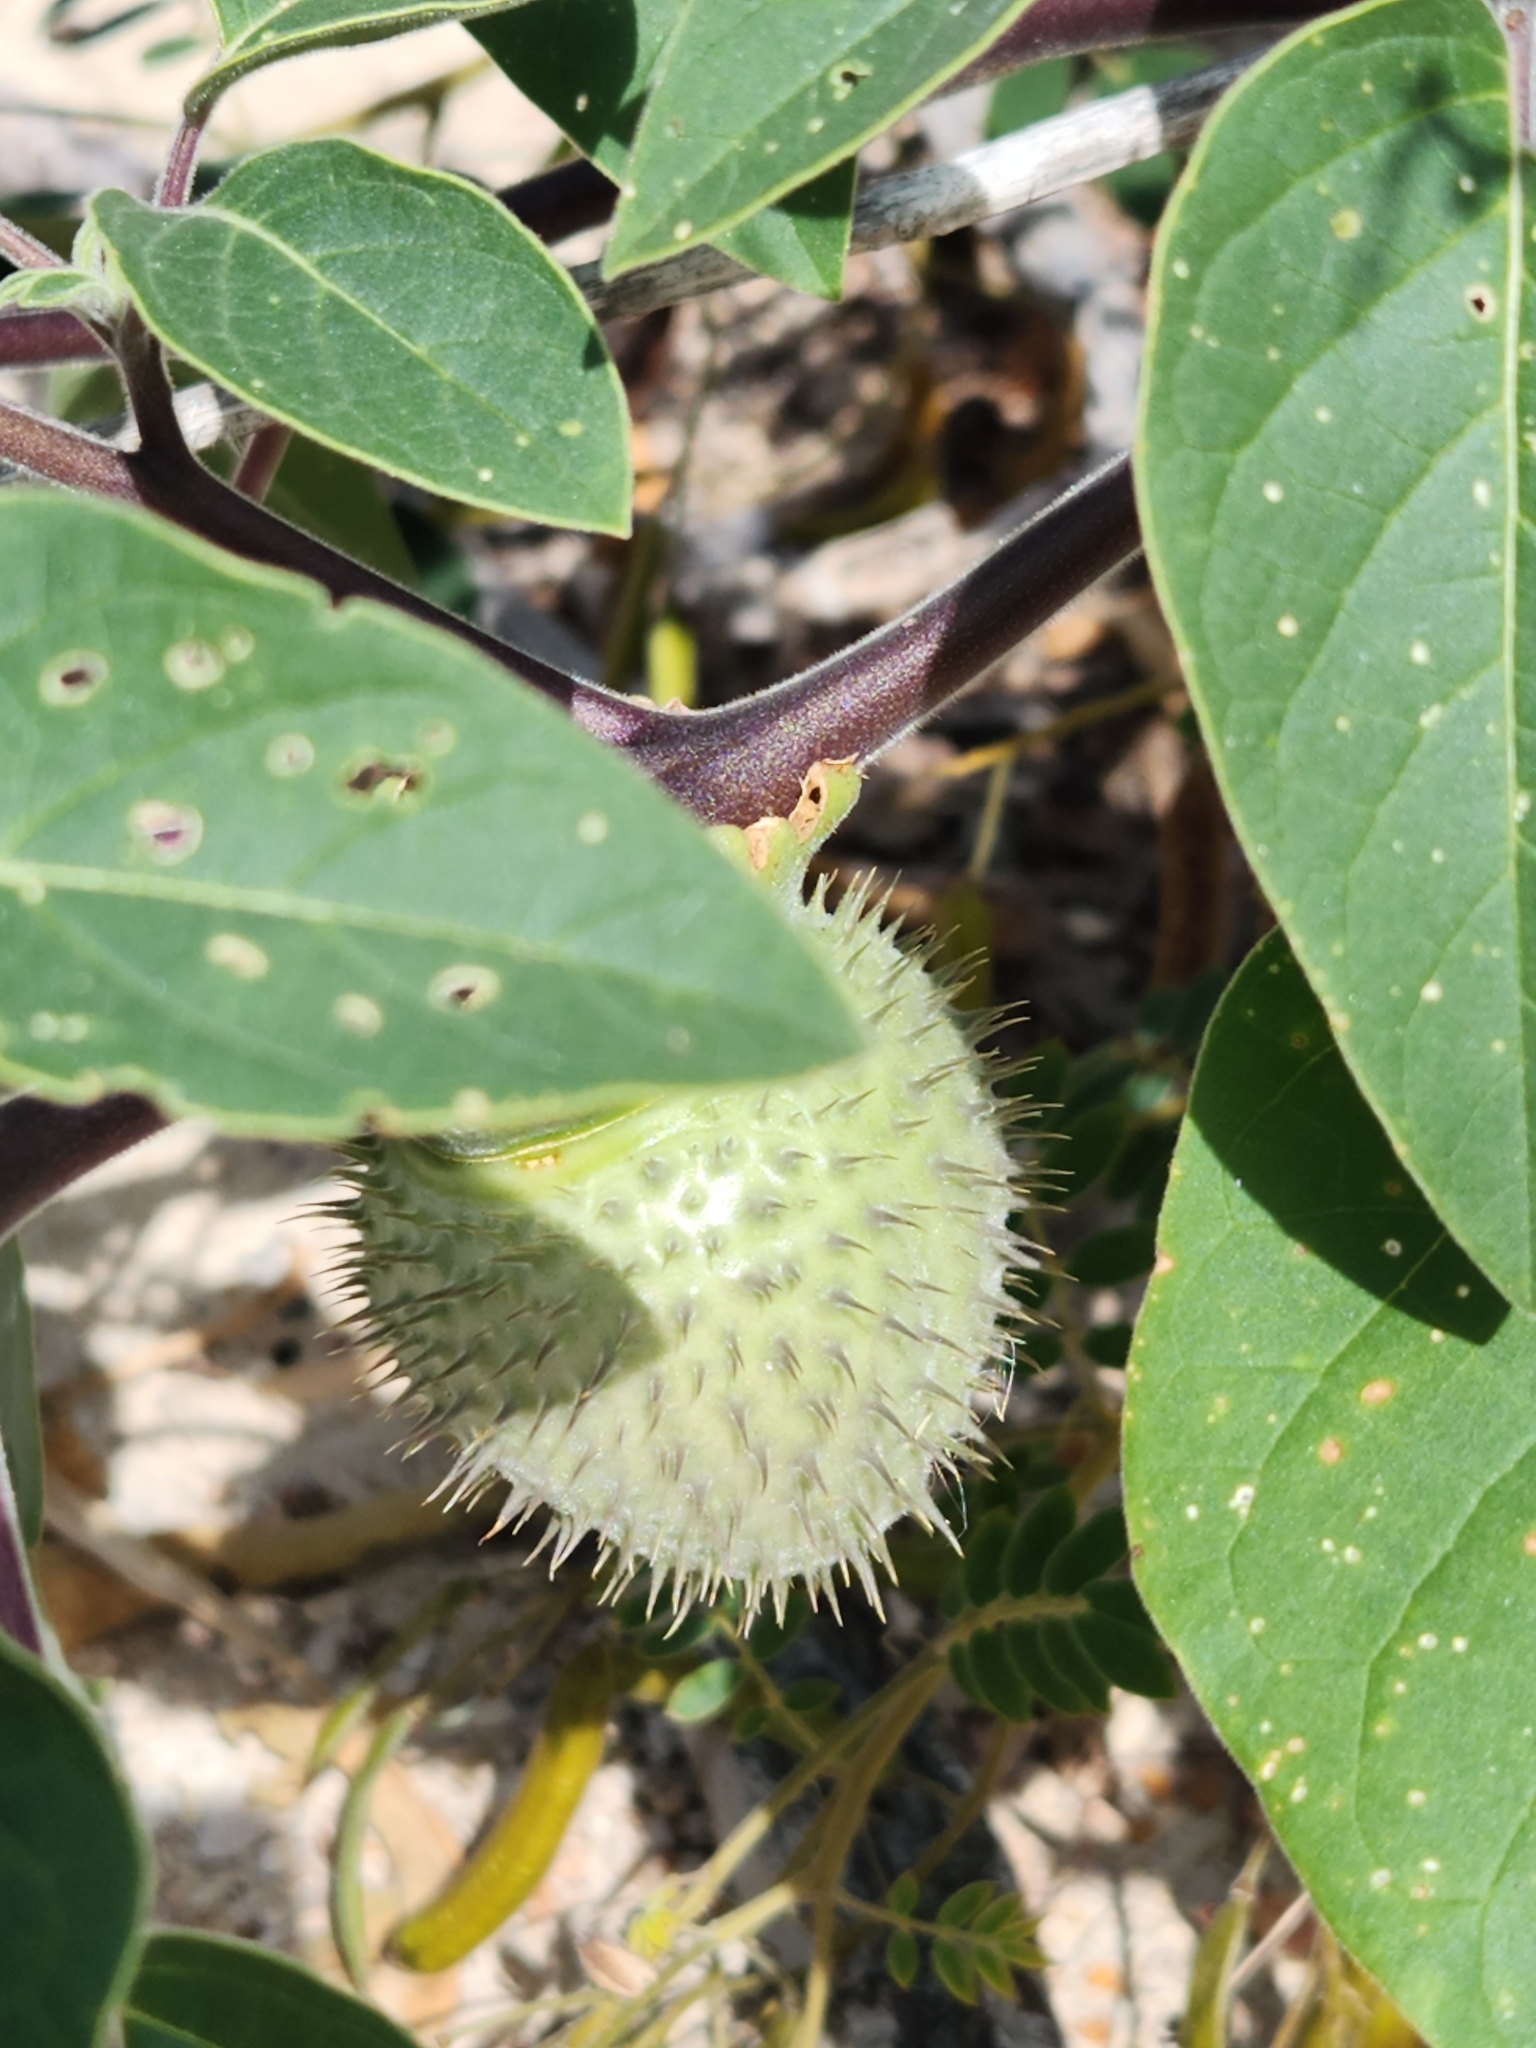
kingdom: Plantae
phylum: Tracheophyta
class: Magnoliopsida
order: Solanales
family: Solanaceae
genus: Datura
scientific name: Datura innoxia
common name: Downy thorn-apple
